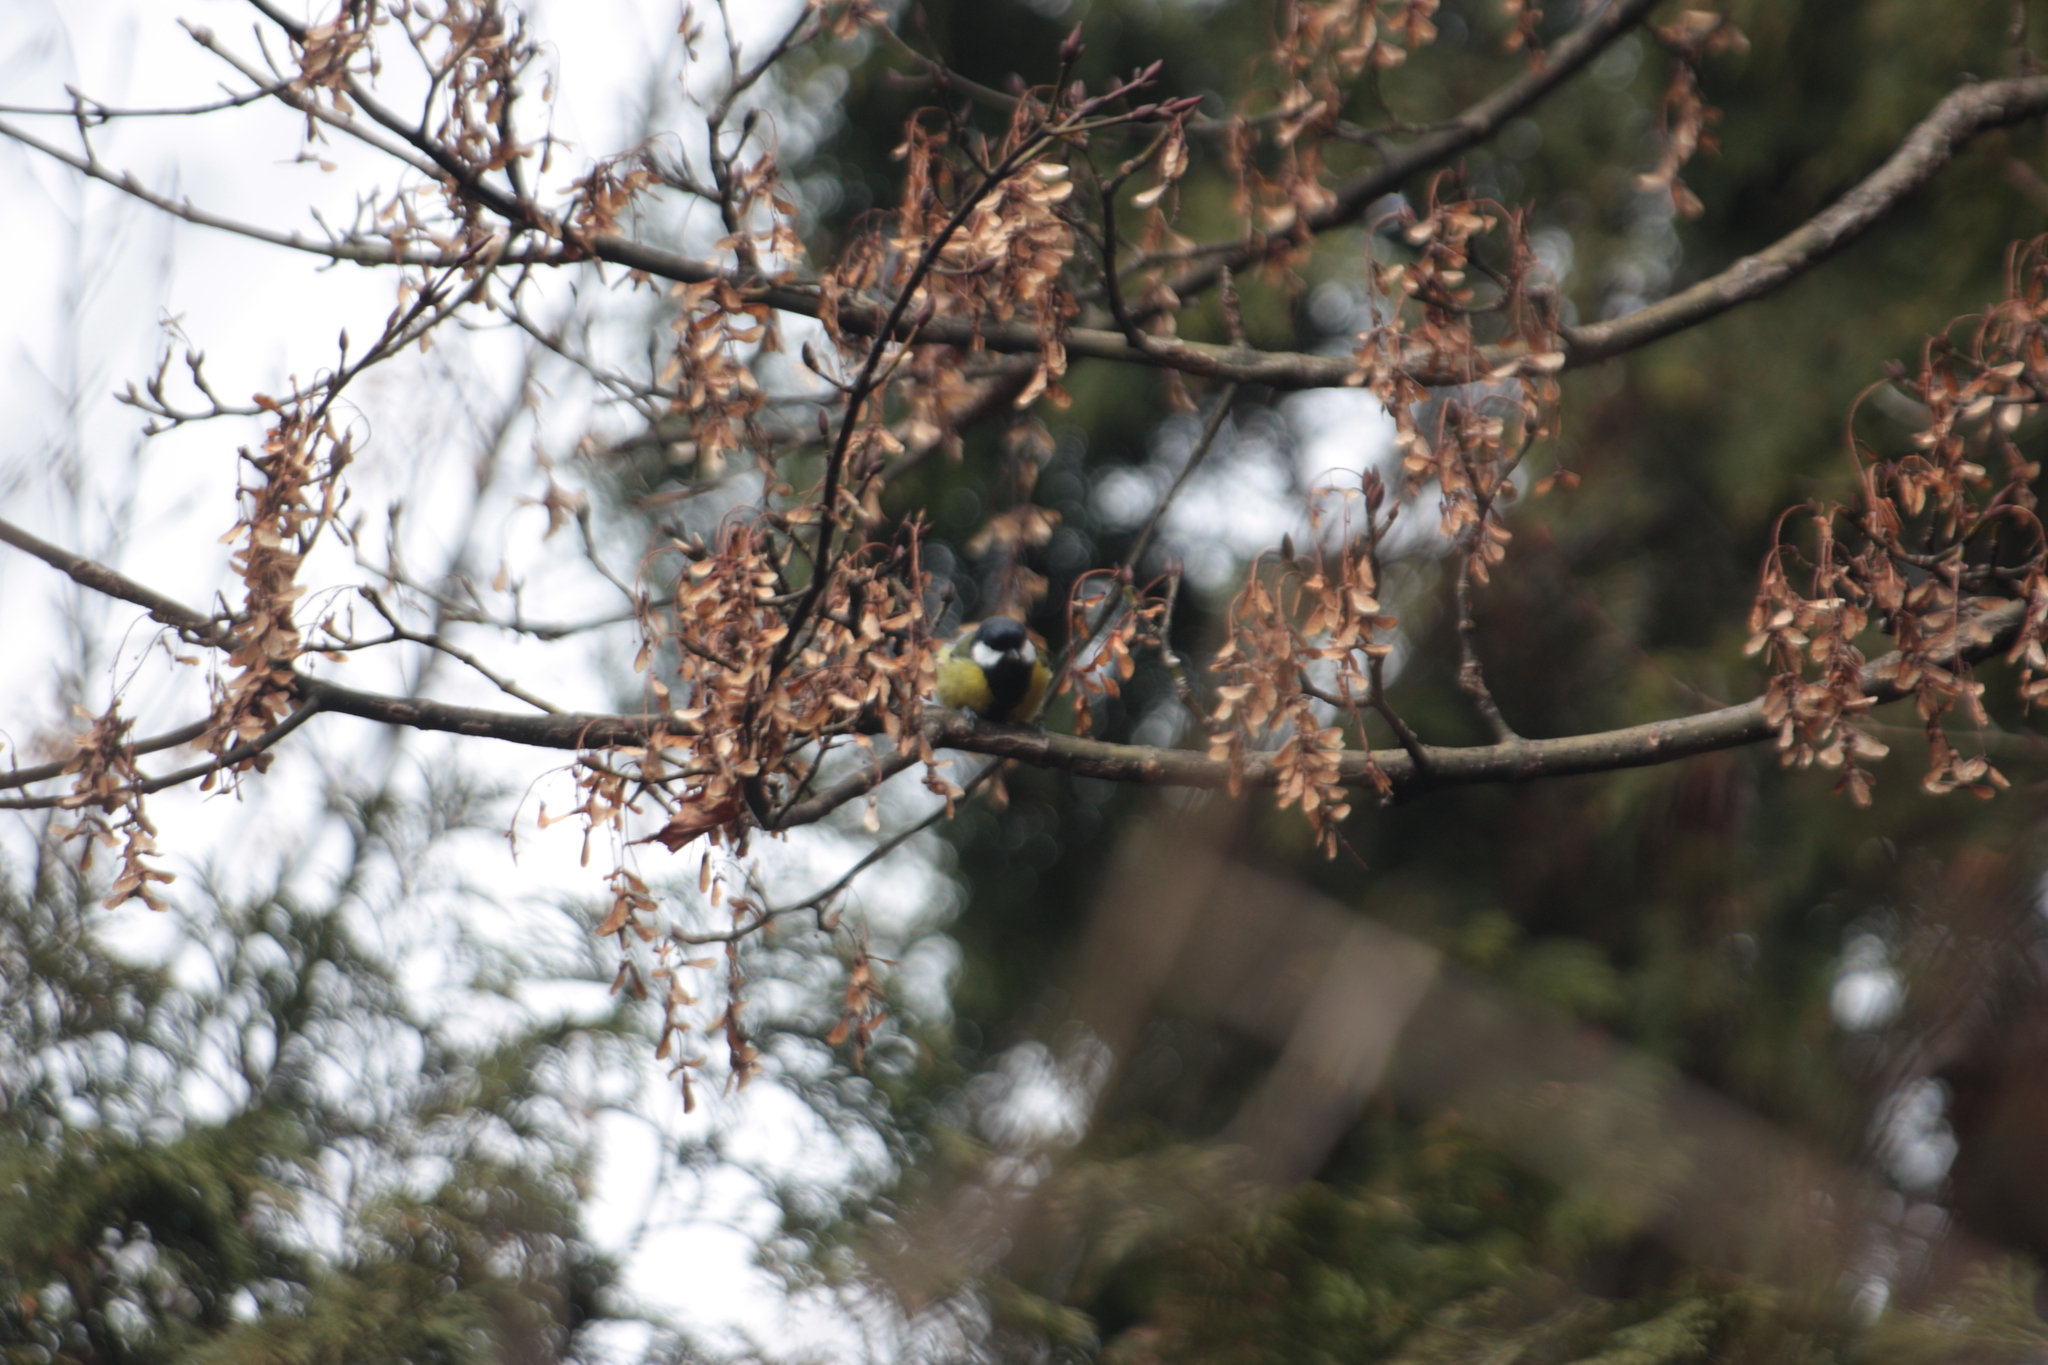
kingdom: Animalia
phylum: Chordata
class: Aves
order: Passeriformes
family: Paridae
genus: Parus
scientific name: Parus monticolus
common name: Green-backed tit
